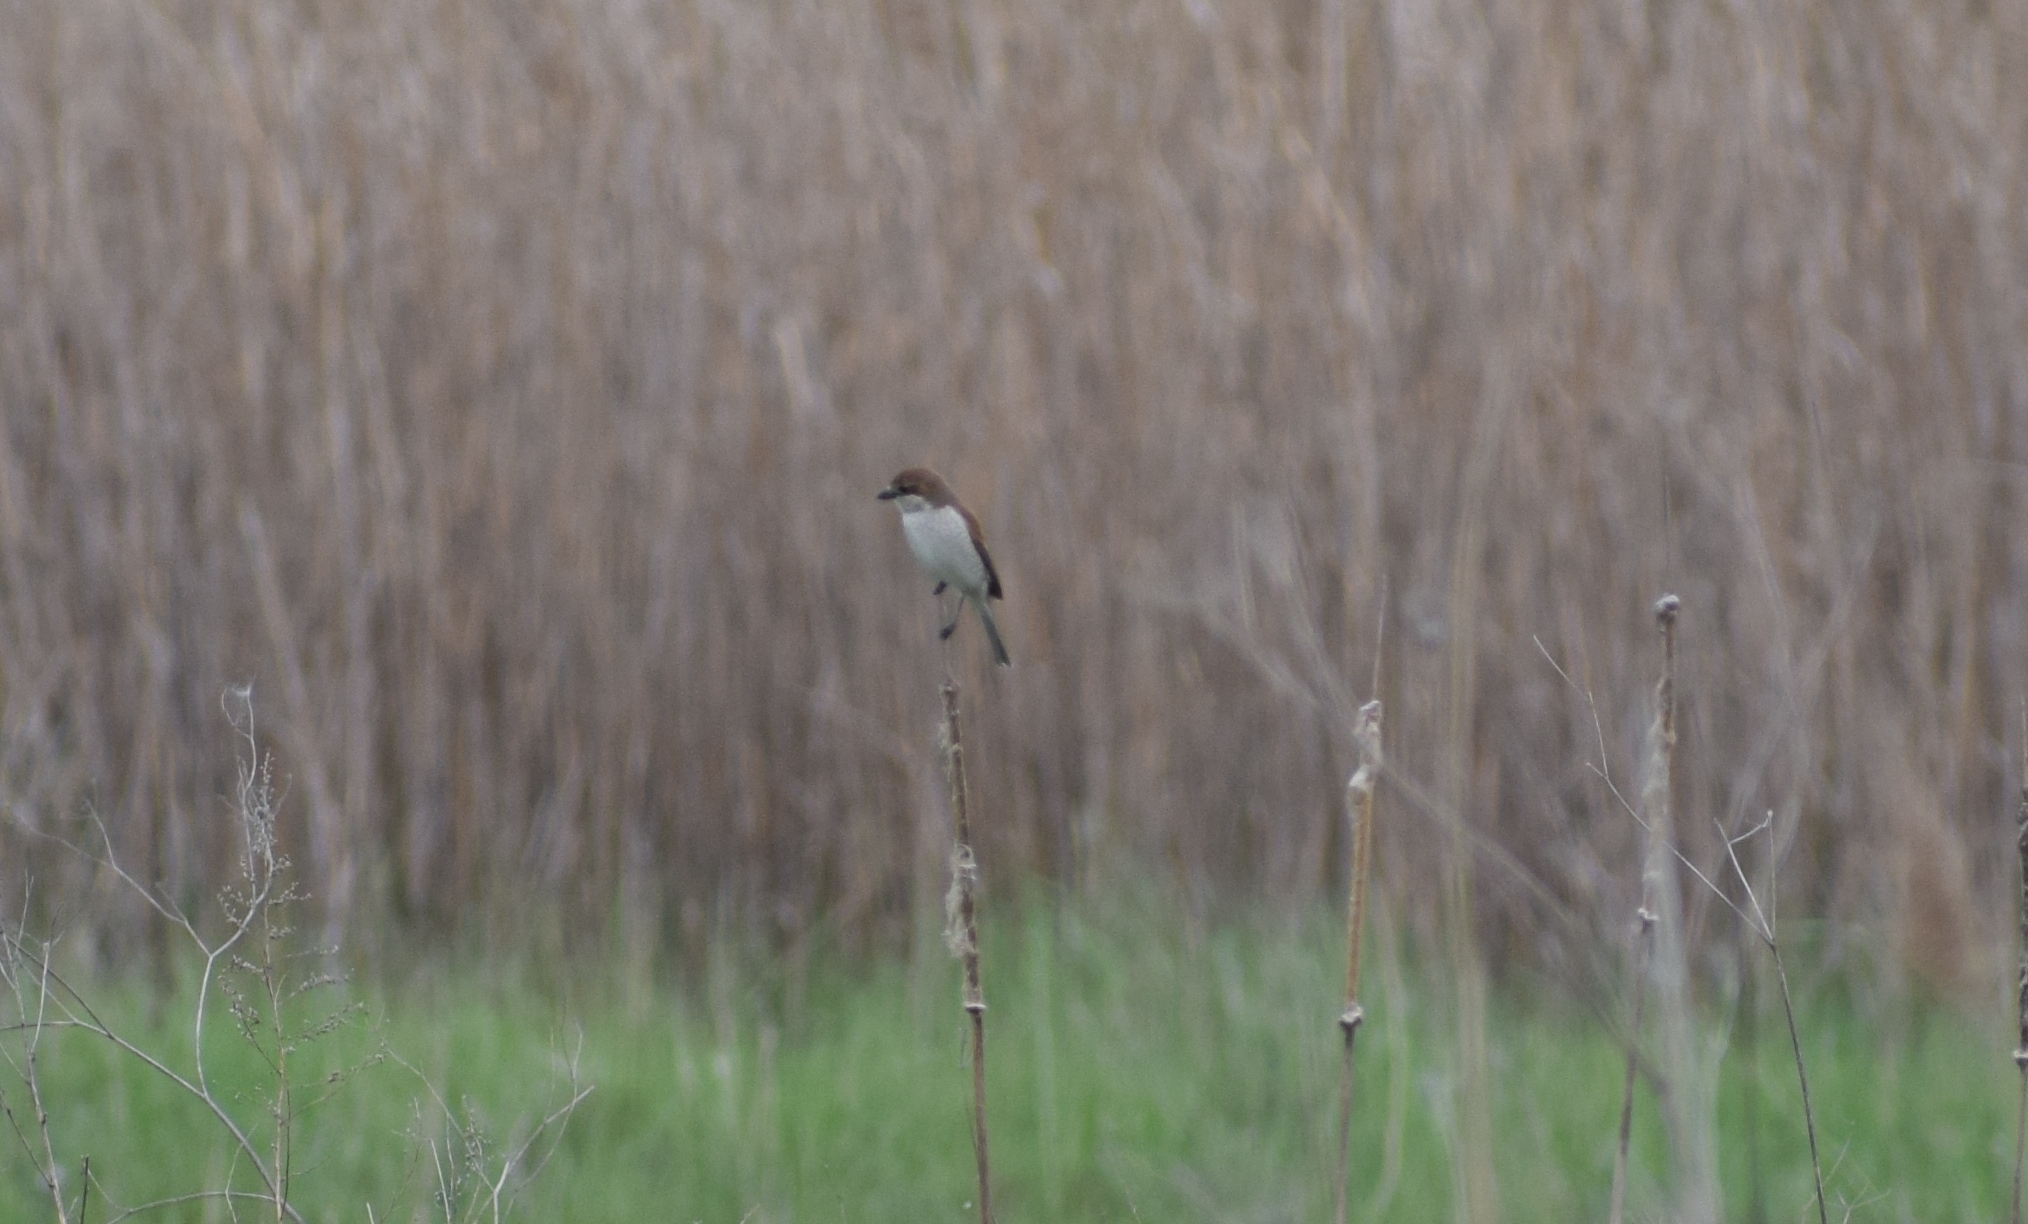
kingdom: Animalia
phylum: Chordata
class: Aves
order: Passeriformes
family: Laniidae
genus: Lanius
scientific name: Lanius collurio
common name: Red-backed shrike
